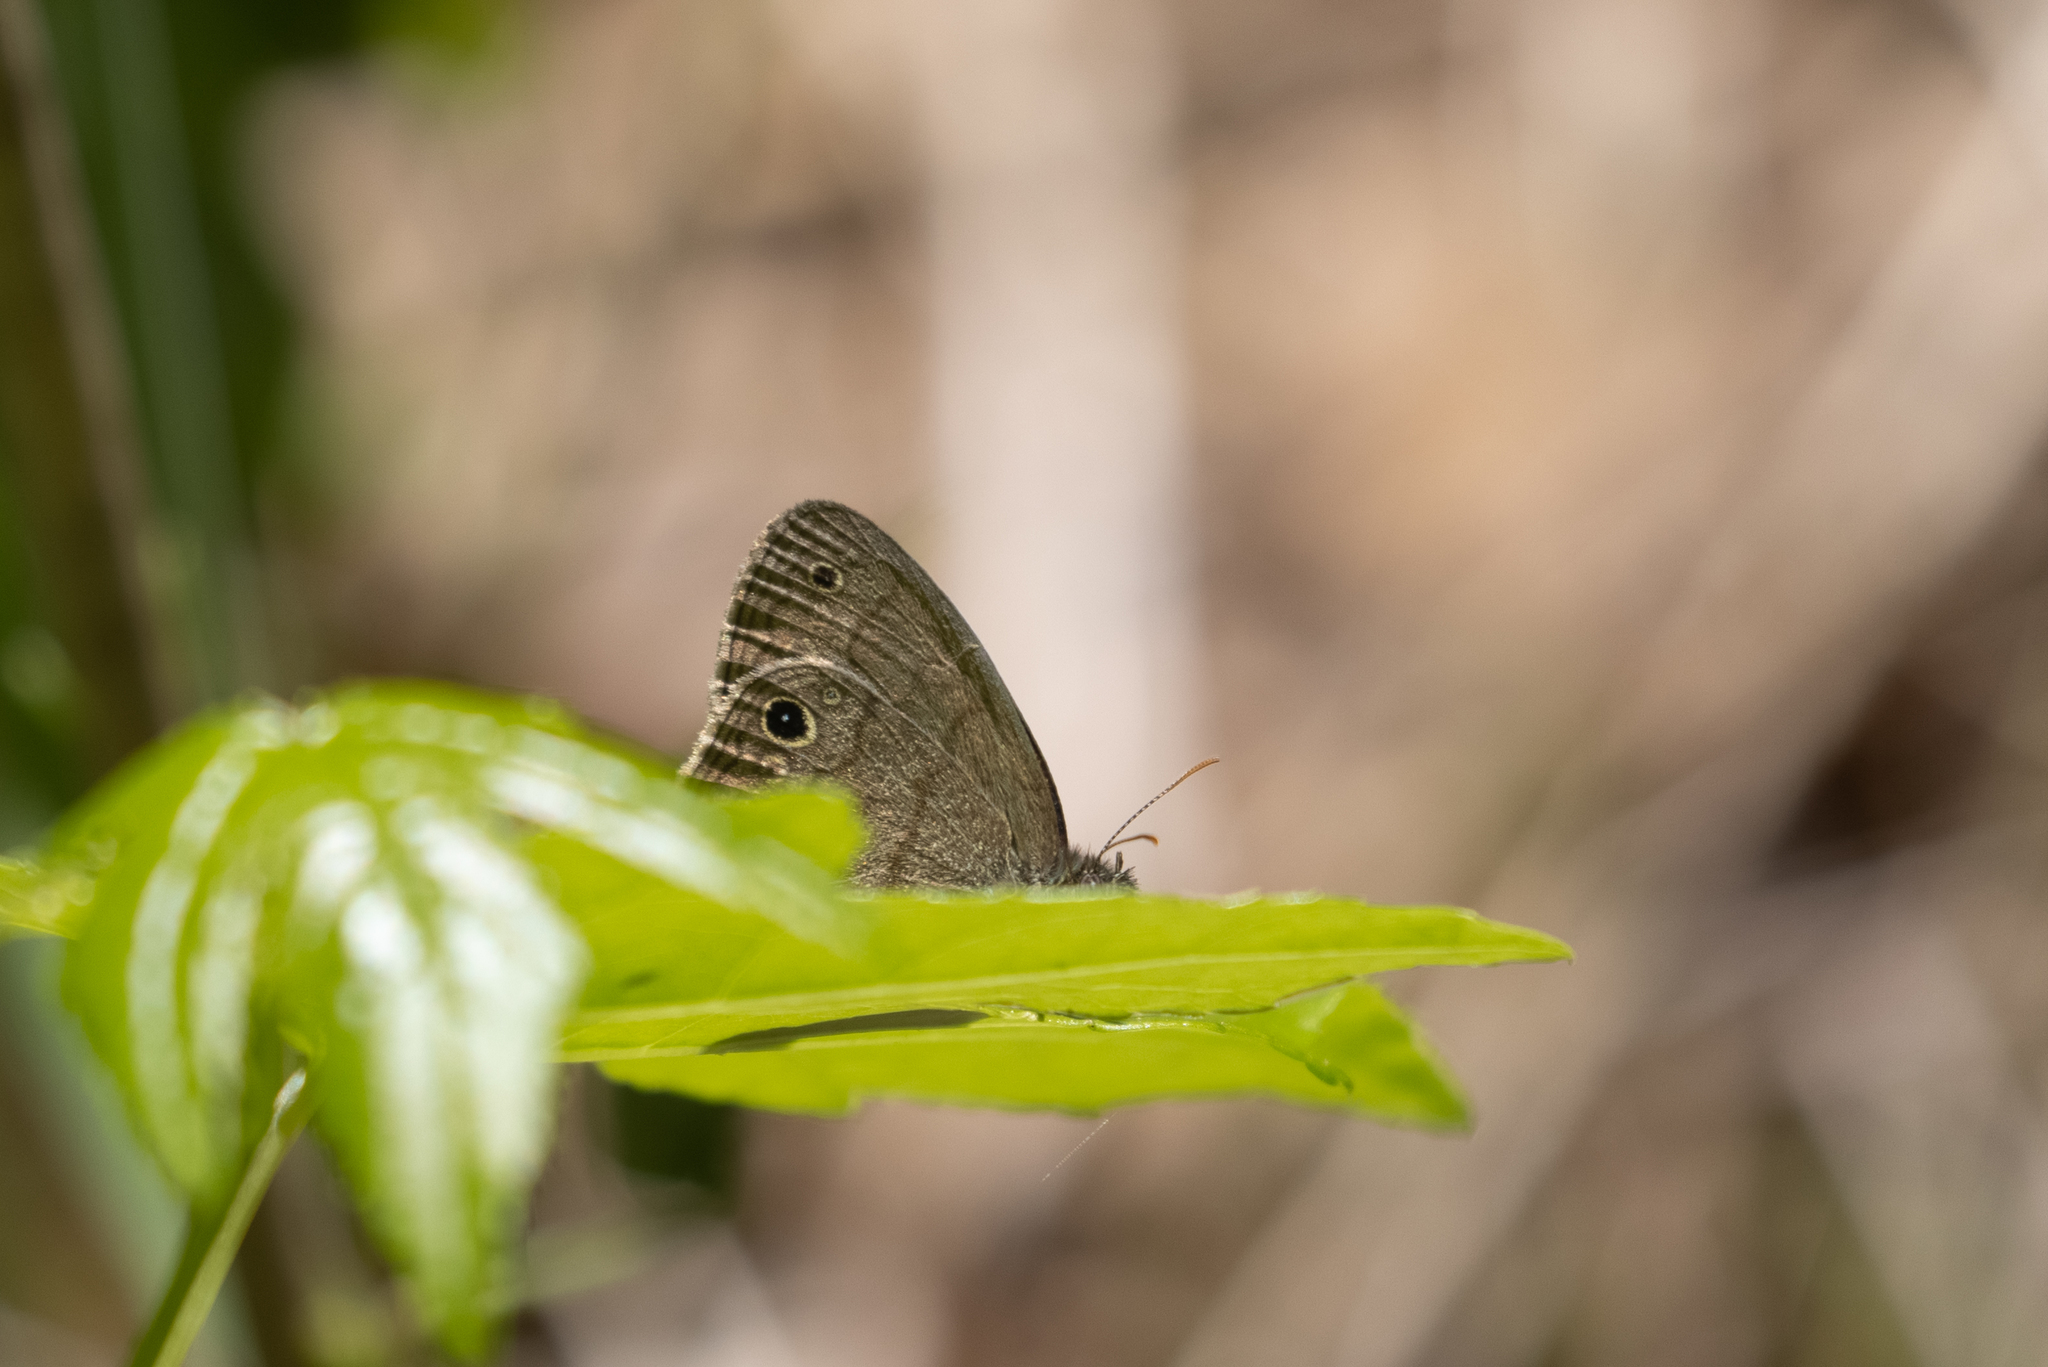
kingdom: Animalia
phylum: Arthropoda
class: Insecta
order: Lepidoptera
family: Nymphalidae
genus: Hermeuptychia
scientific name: Hermeuptychia hermes
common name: Hermes satyr
